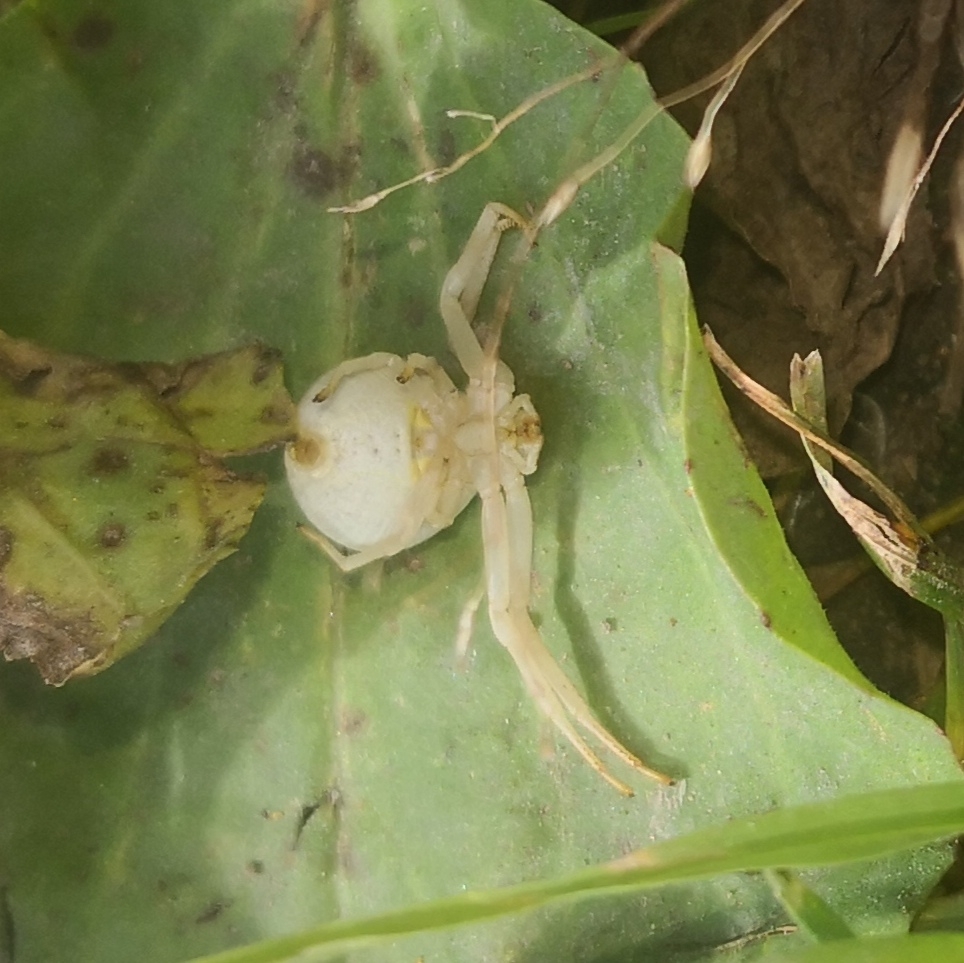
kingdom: Animalia
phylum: Arthropoda
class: Arachnida
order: Araneae
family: Thomisidae
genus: Misumena
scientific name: Misumena vatia
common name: Goldenrod crab spider
